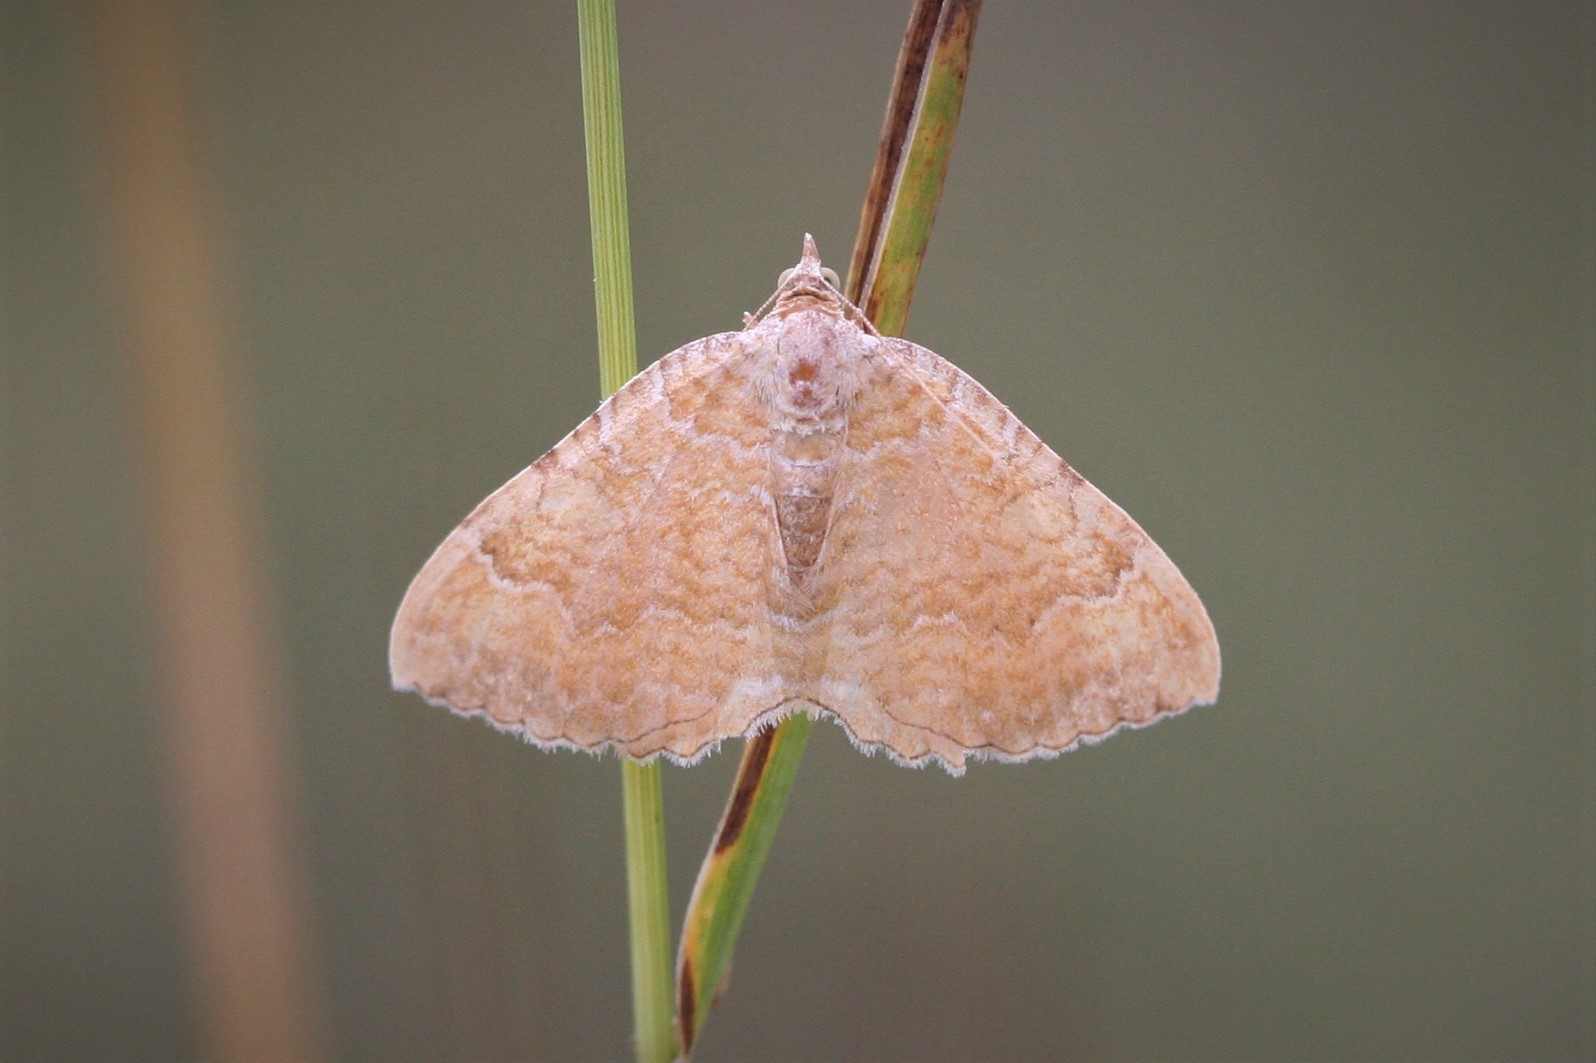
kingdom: Animalia
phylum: Arthropoda
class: Insecta
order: Lepidoptera
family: Geometridae
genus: Camptogramma
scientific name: Camptogramma bilineata
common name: Yellow shell
